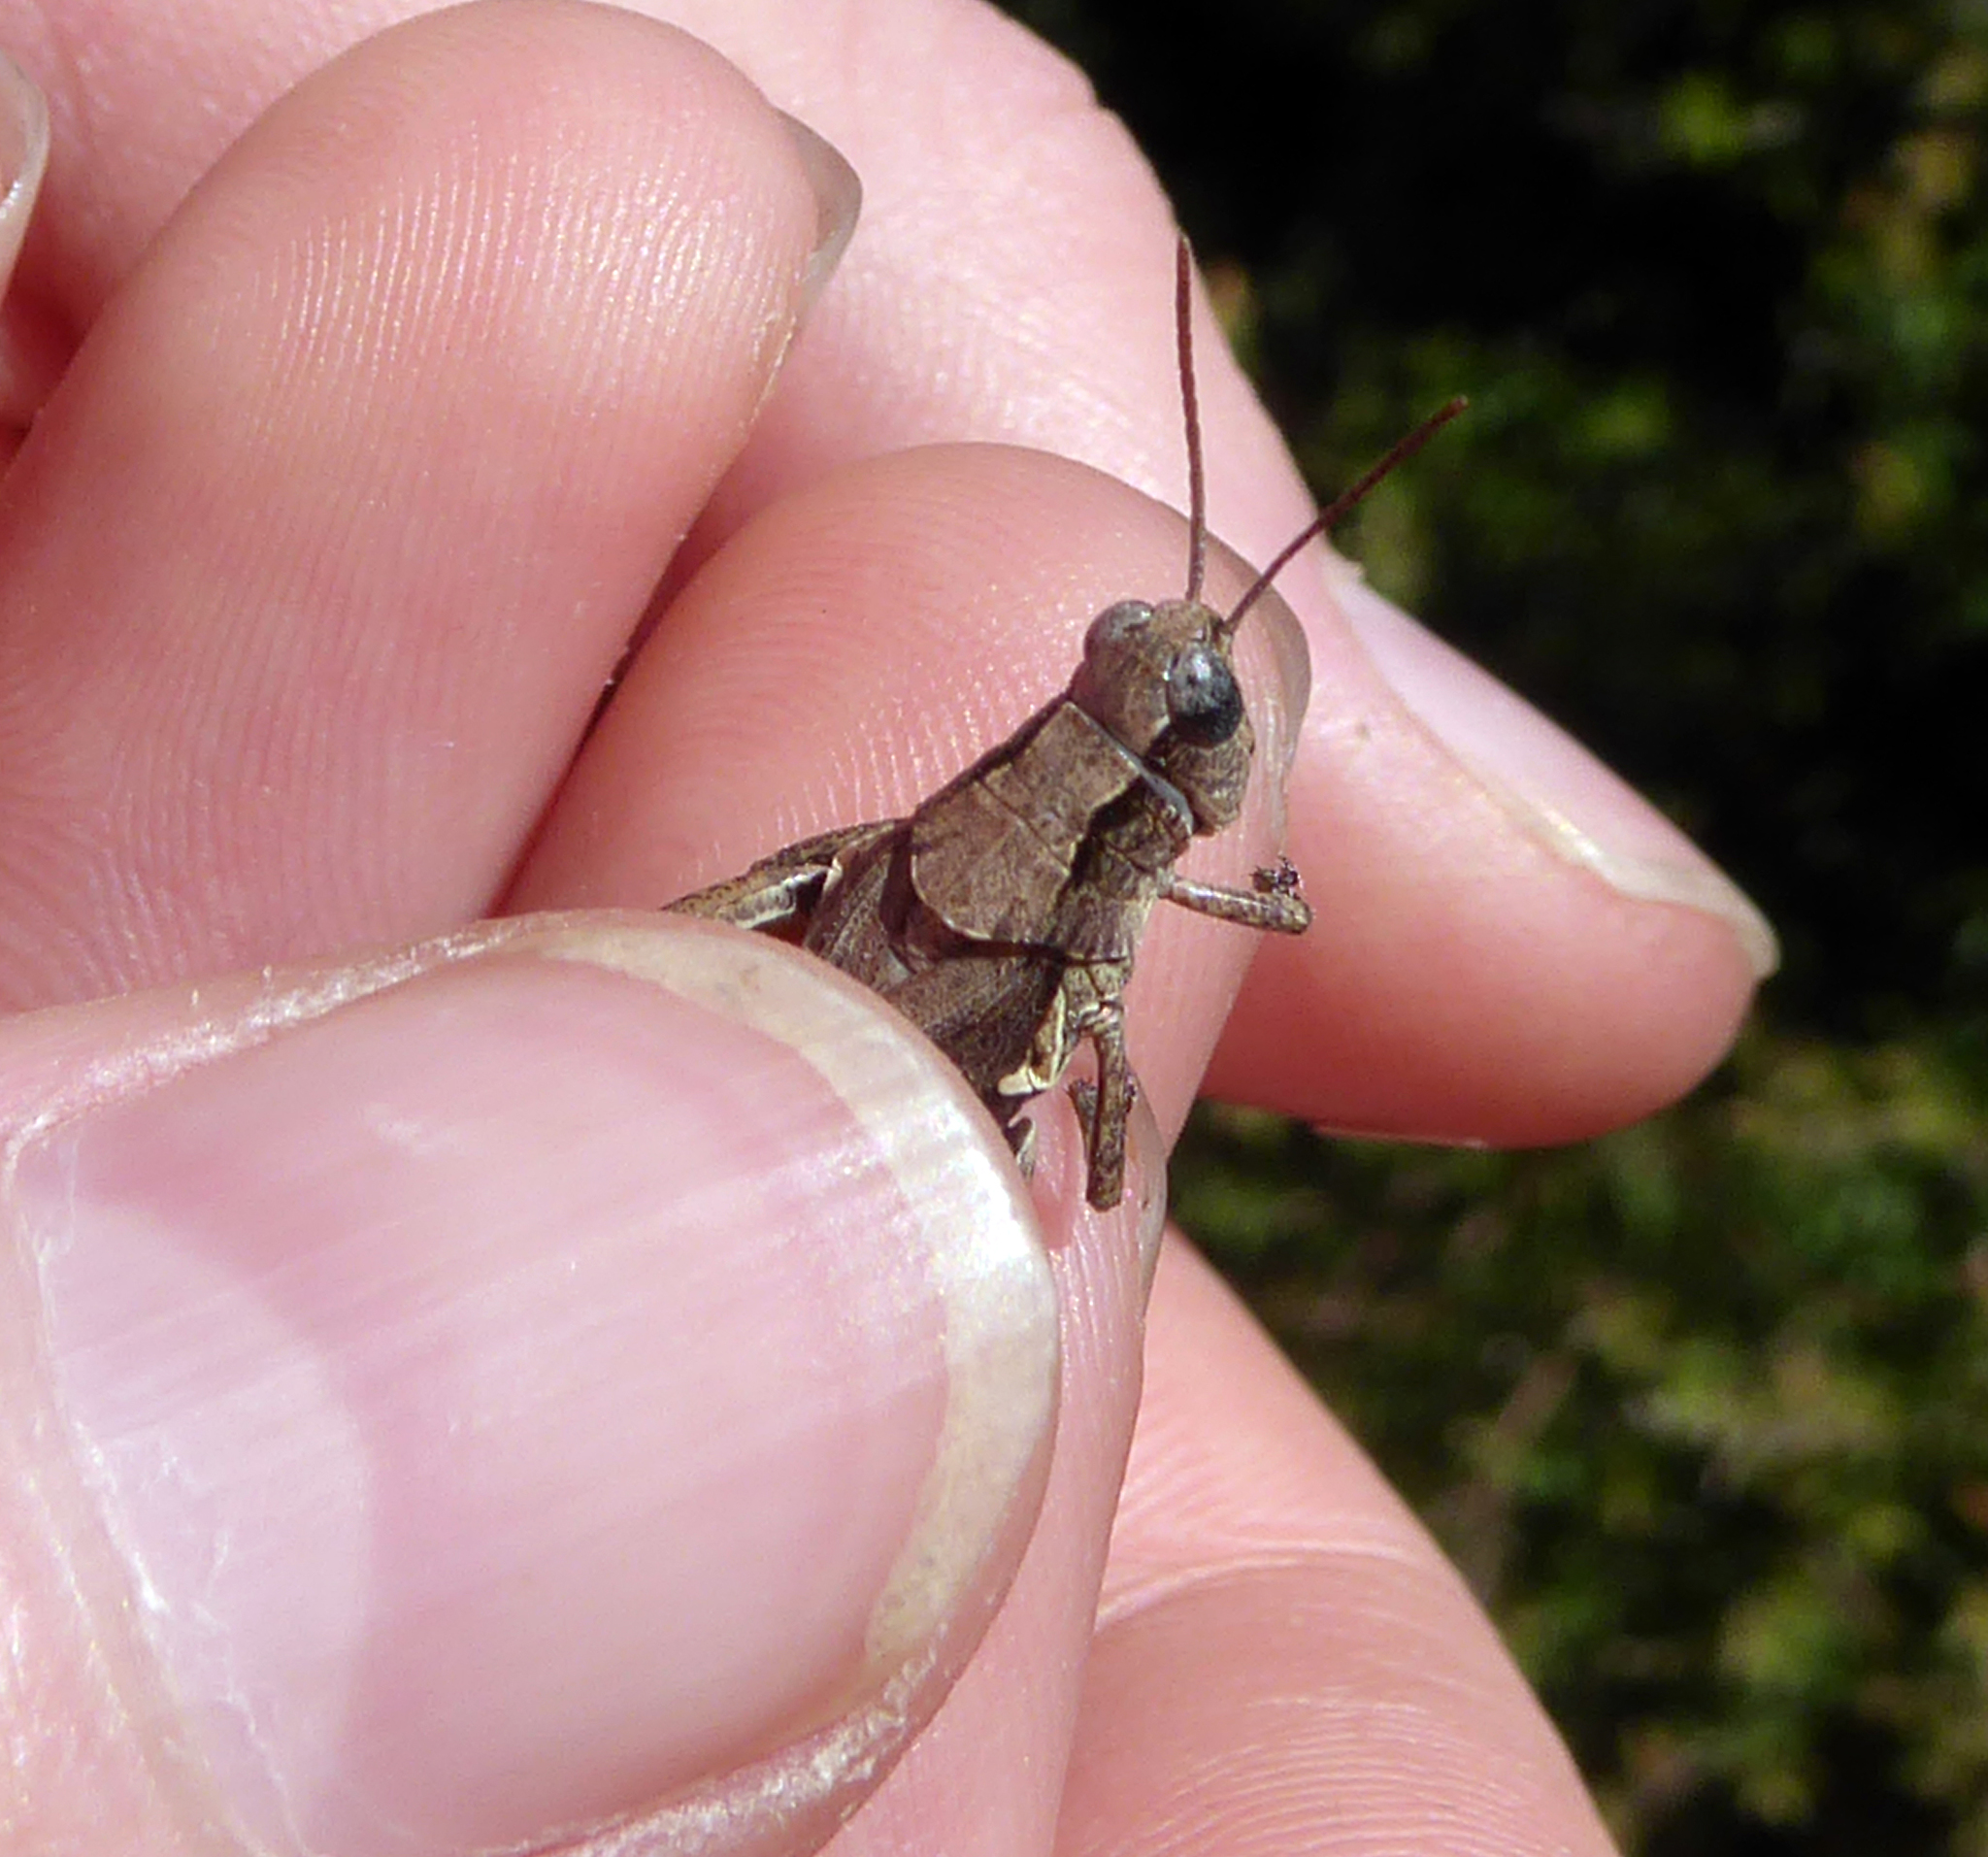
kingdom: Animalia
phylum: Arthropoda
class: Insecta
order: Orthoptera
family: Acrididae
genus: Phaulacridium
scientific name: Phaulacridium marginale
